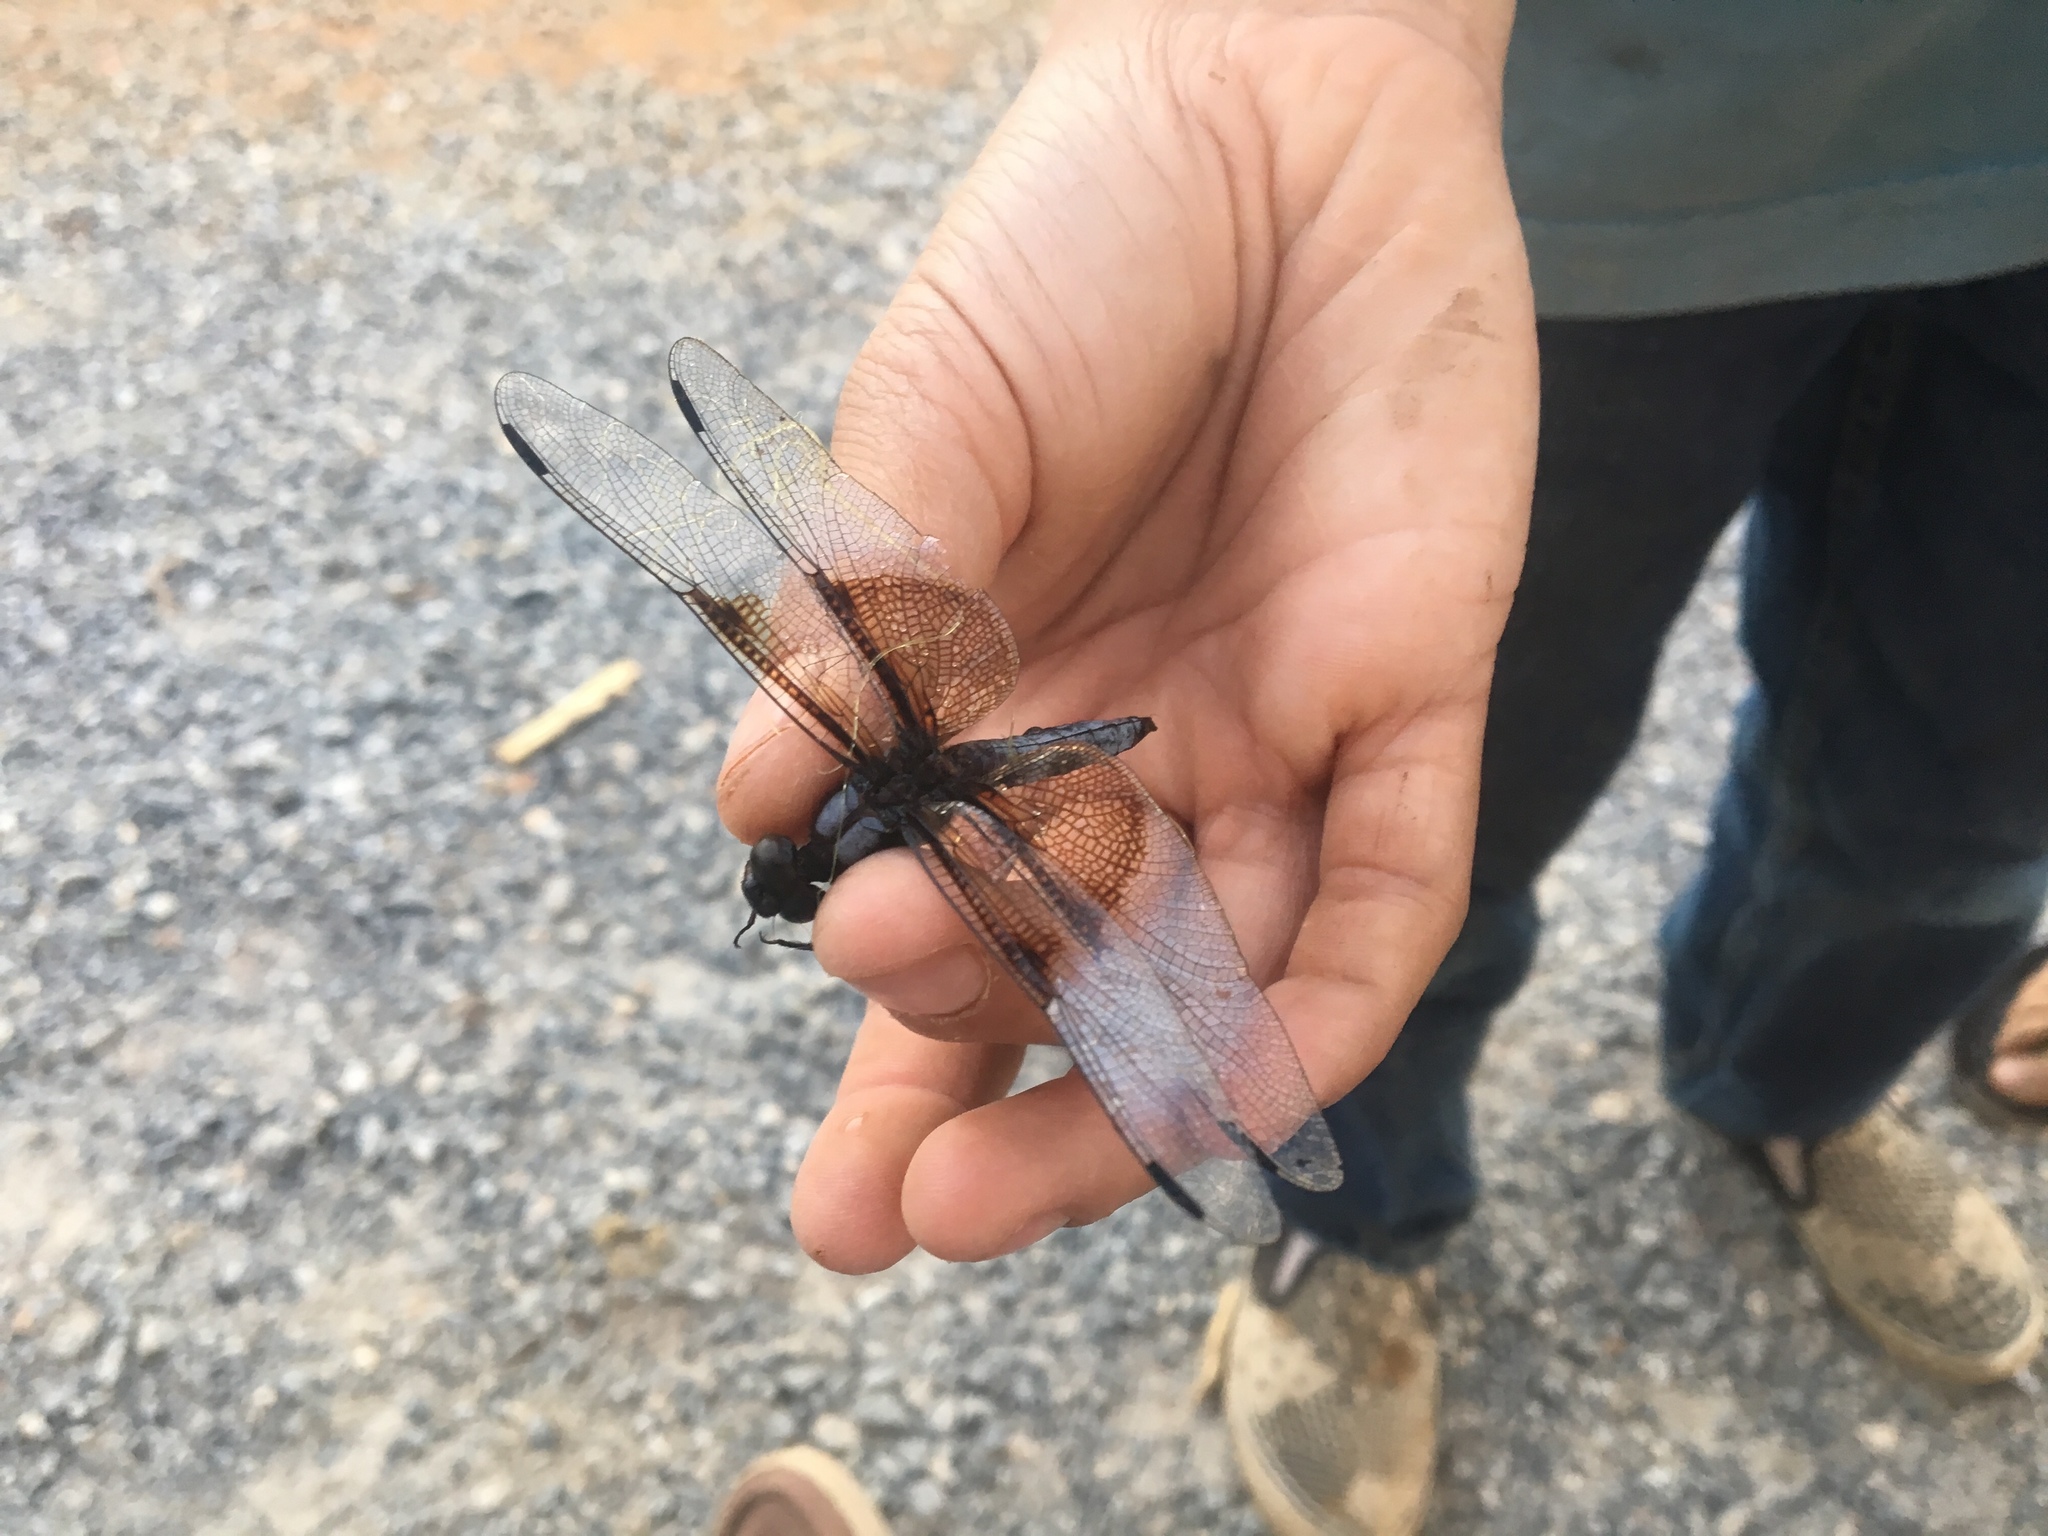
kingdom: Animalia
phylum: Arthropoda
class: Insecta
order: Odonata
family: Libellulidae
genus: Libellula
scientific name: Libellula luctuosa
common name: Widow skimmer
